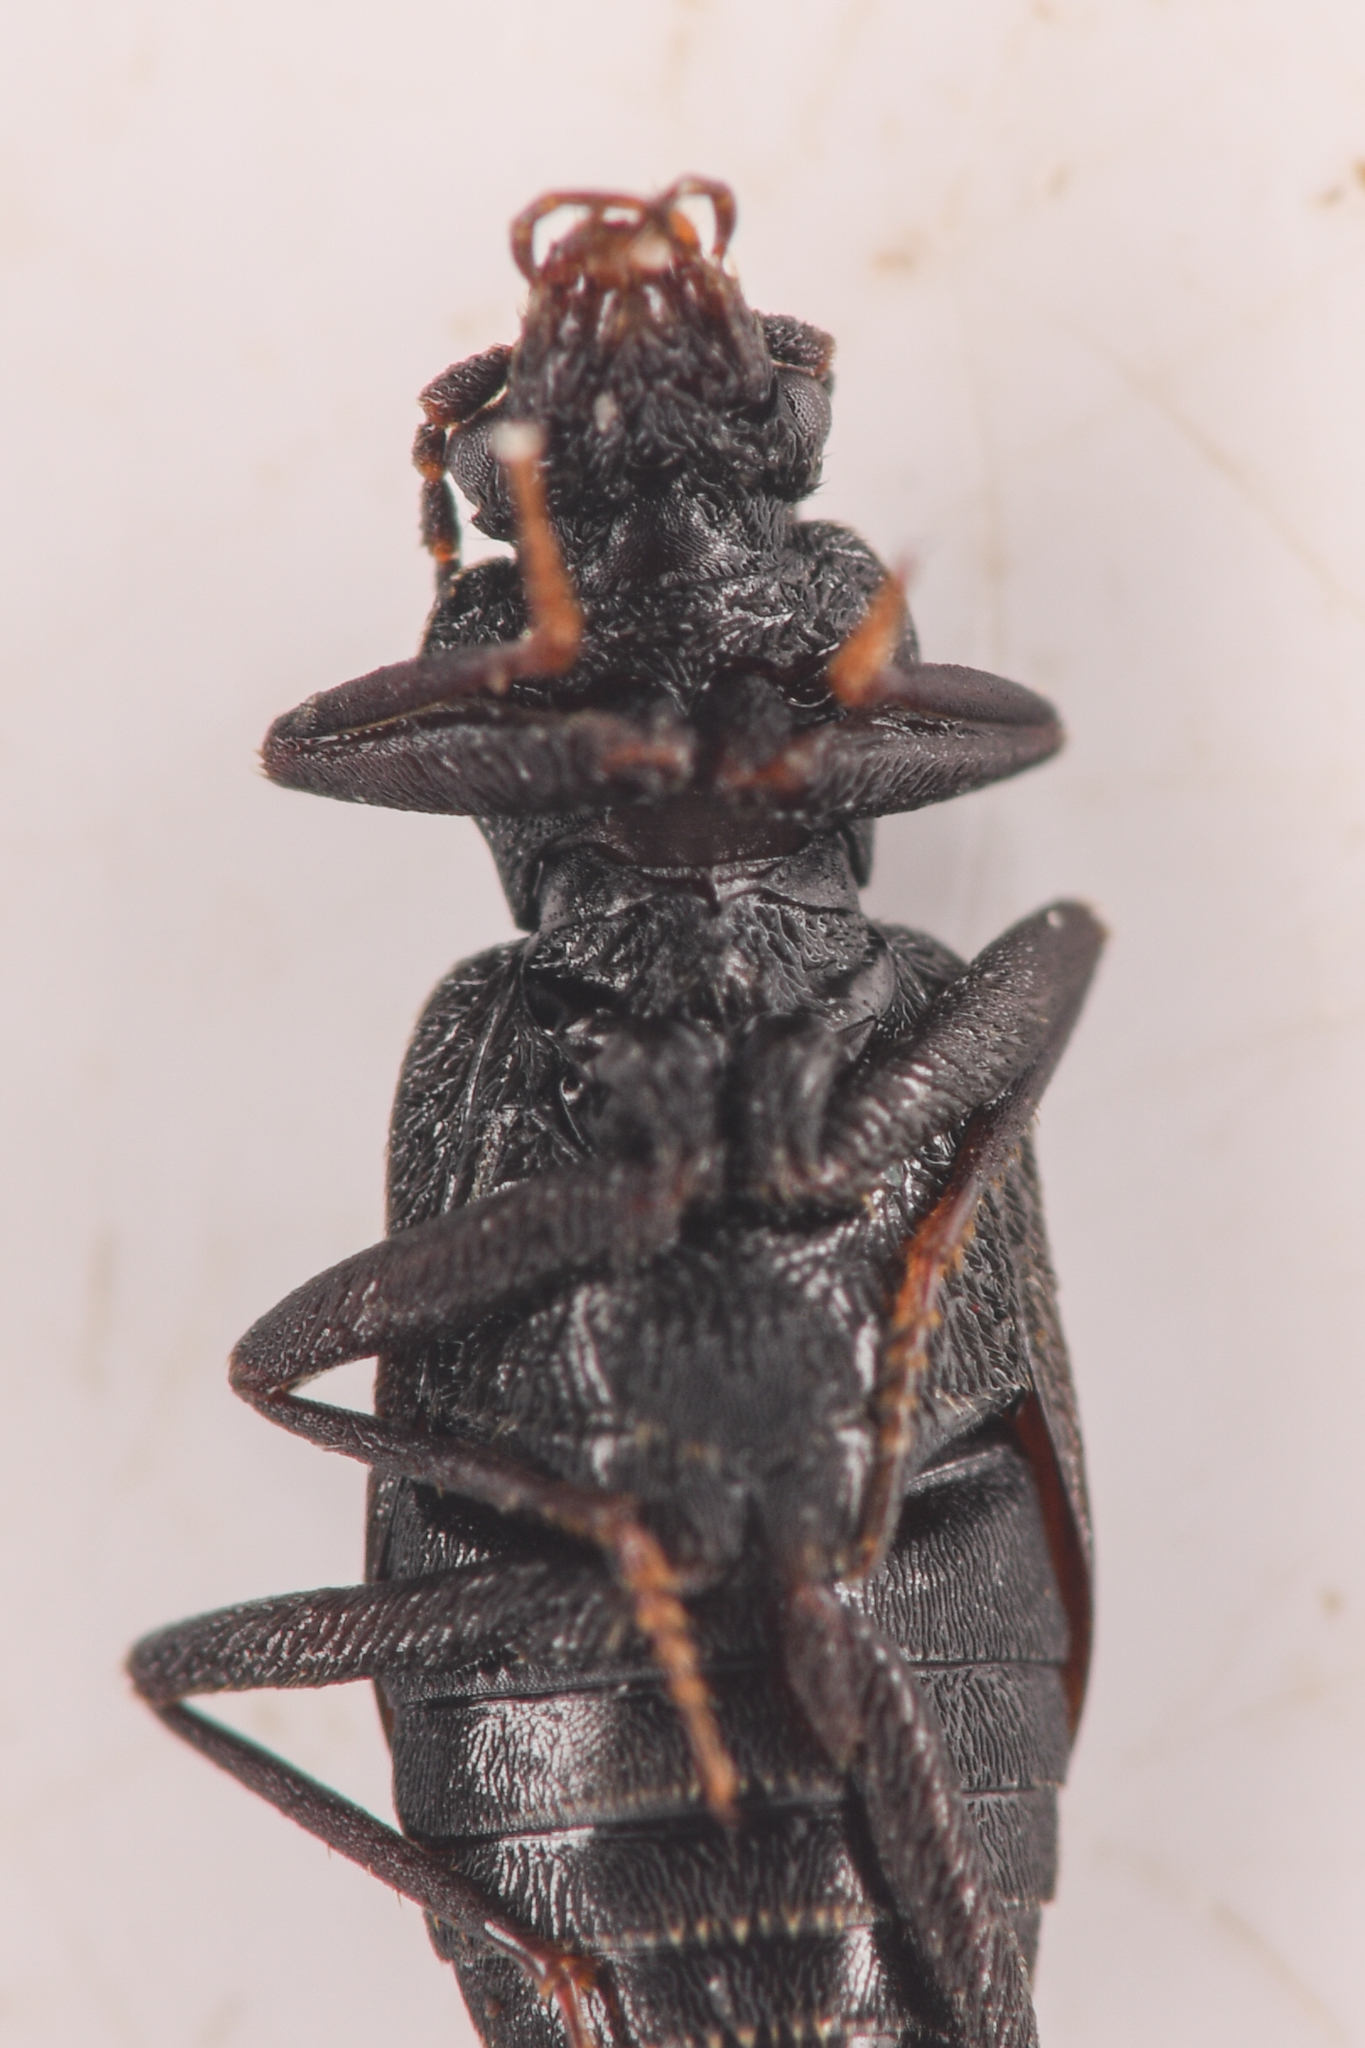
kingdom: Animalia
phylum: Arthropoda
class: Insecta
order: Coleoptera
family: Staphylinidae
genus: Phlaeopterus
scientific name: Phlaeopterus longipennis
